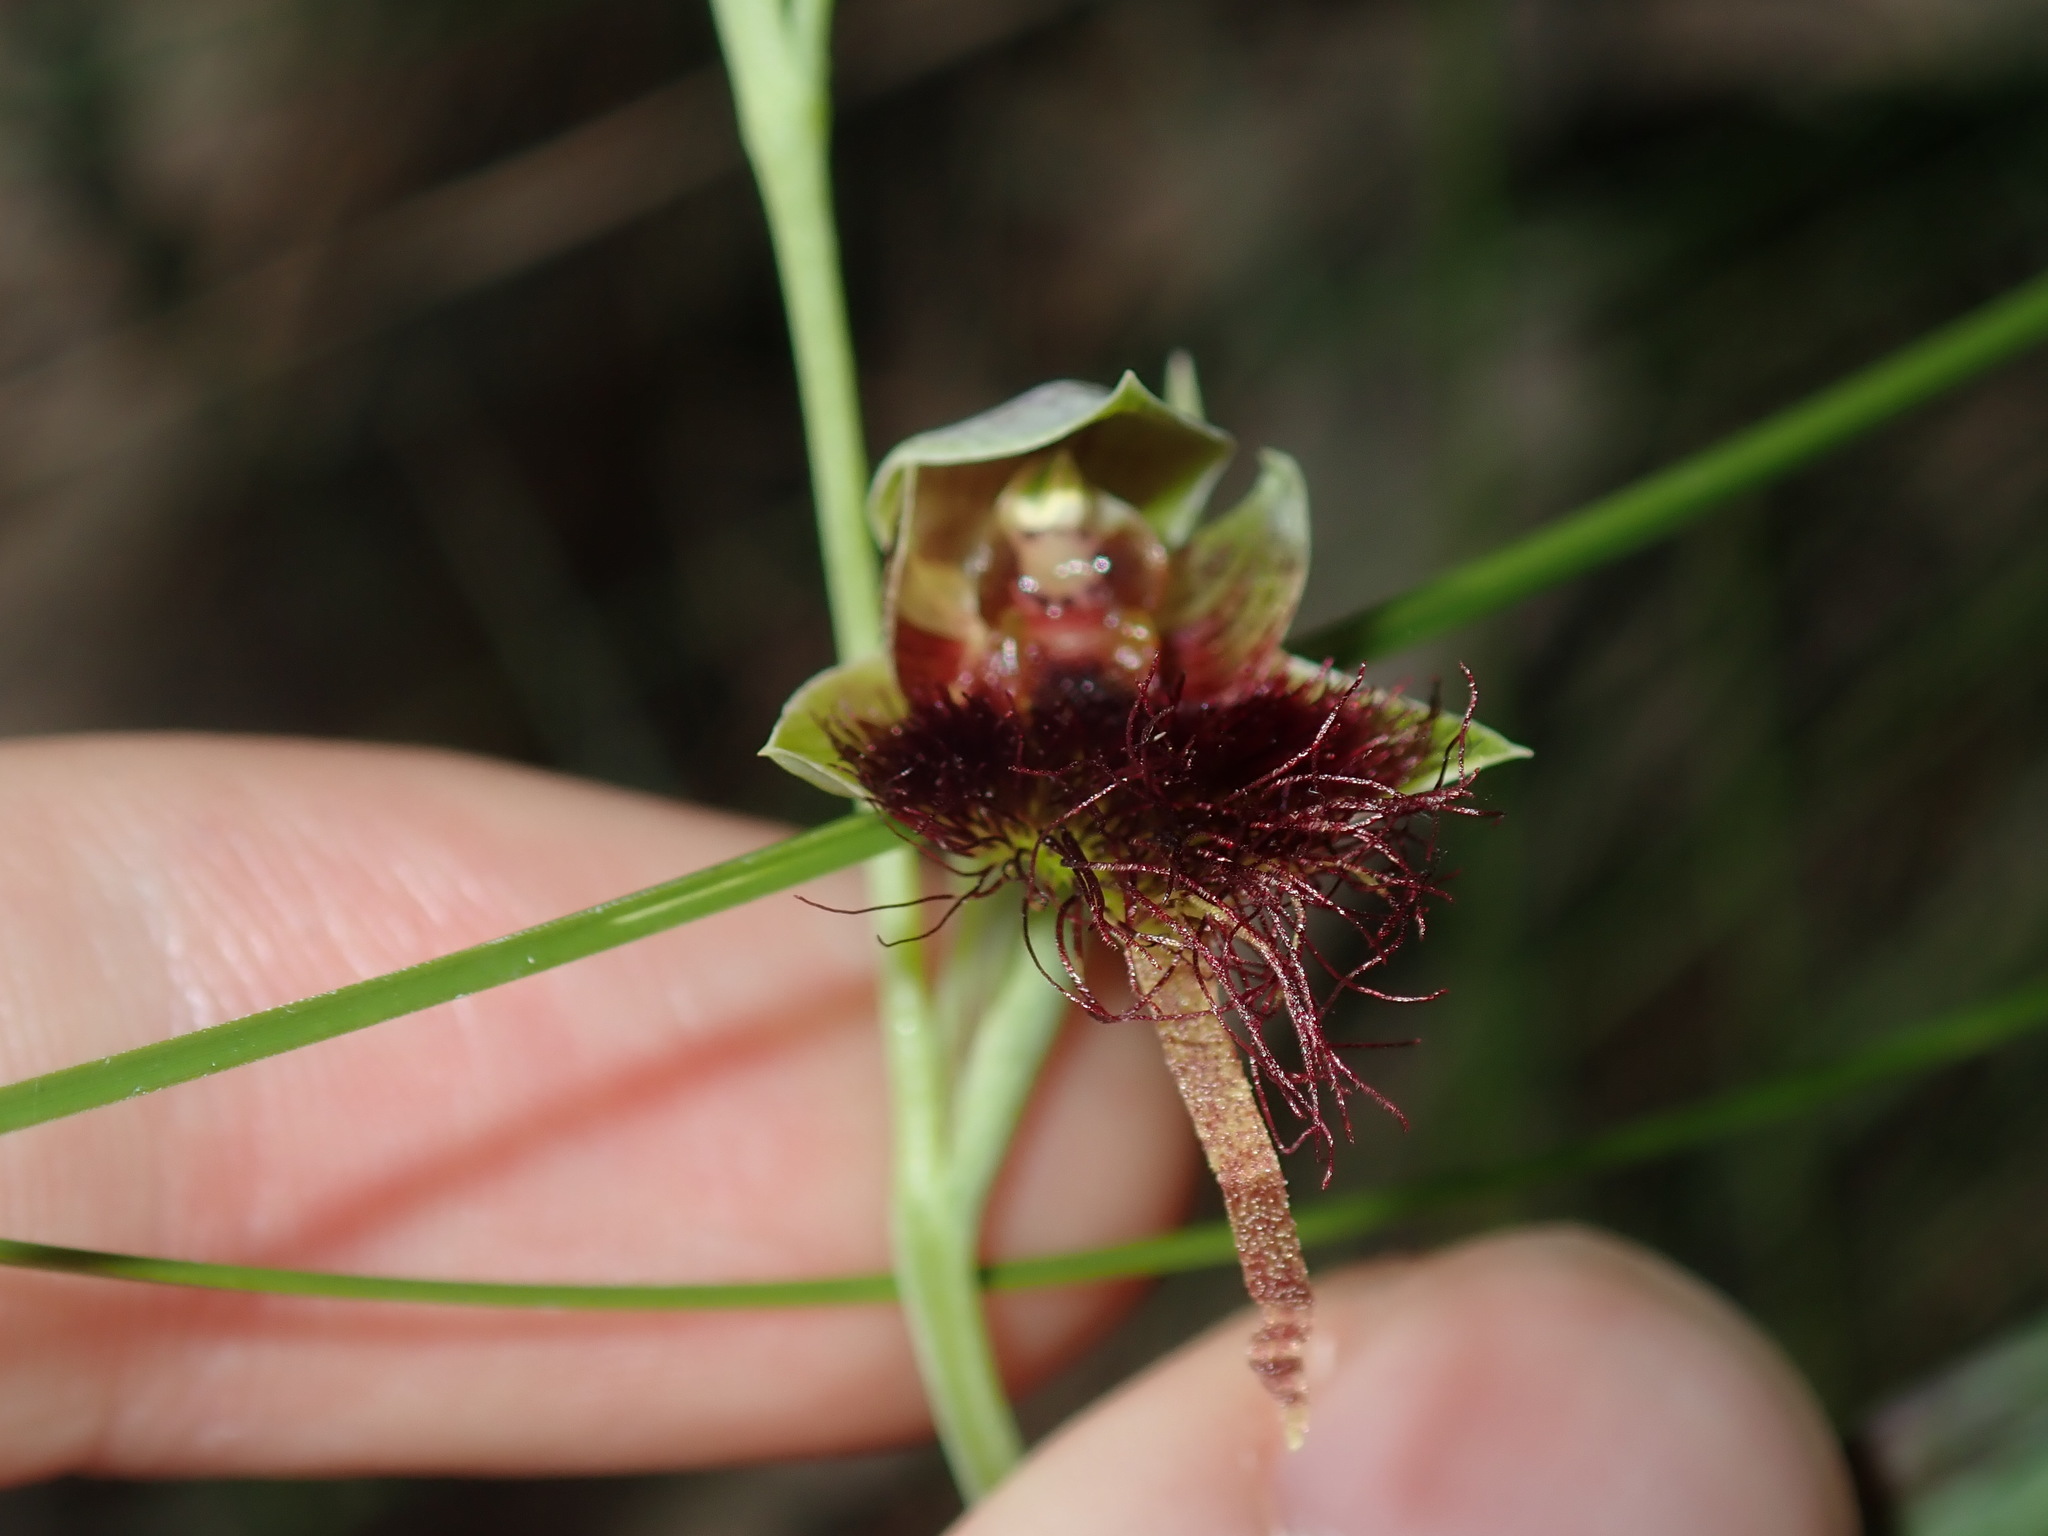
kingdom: Plantae
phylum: Tracheophyta
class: Liliopsida
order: Asparagales
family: Orchidaceae
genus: Calochilus
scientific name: Calochilus paludosus
